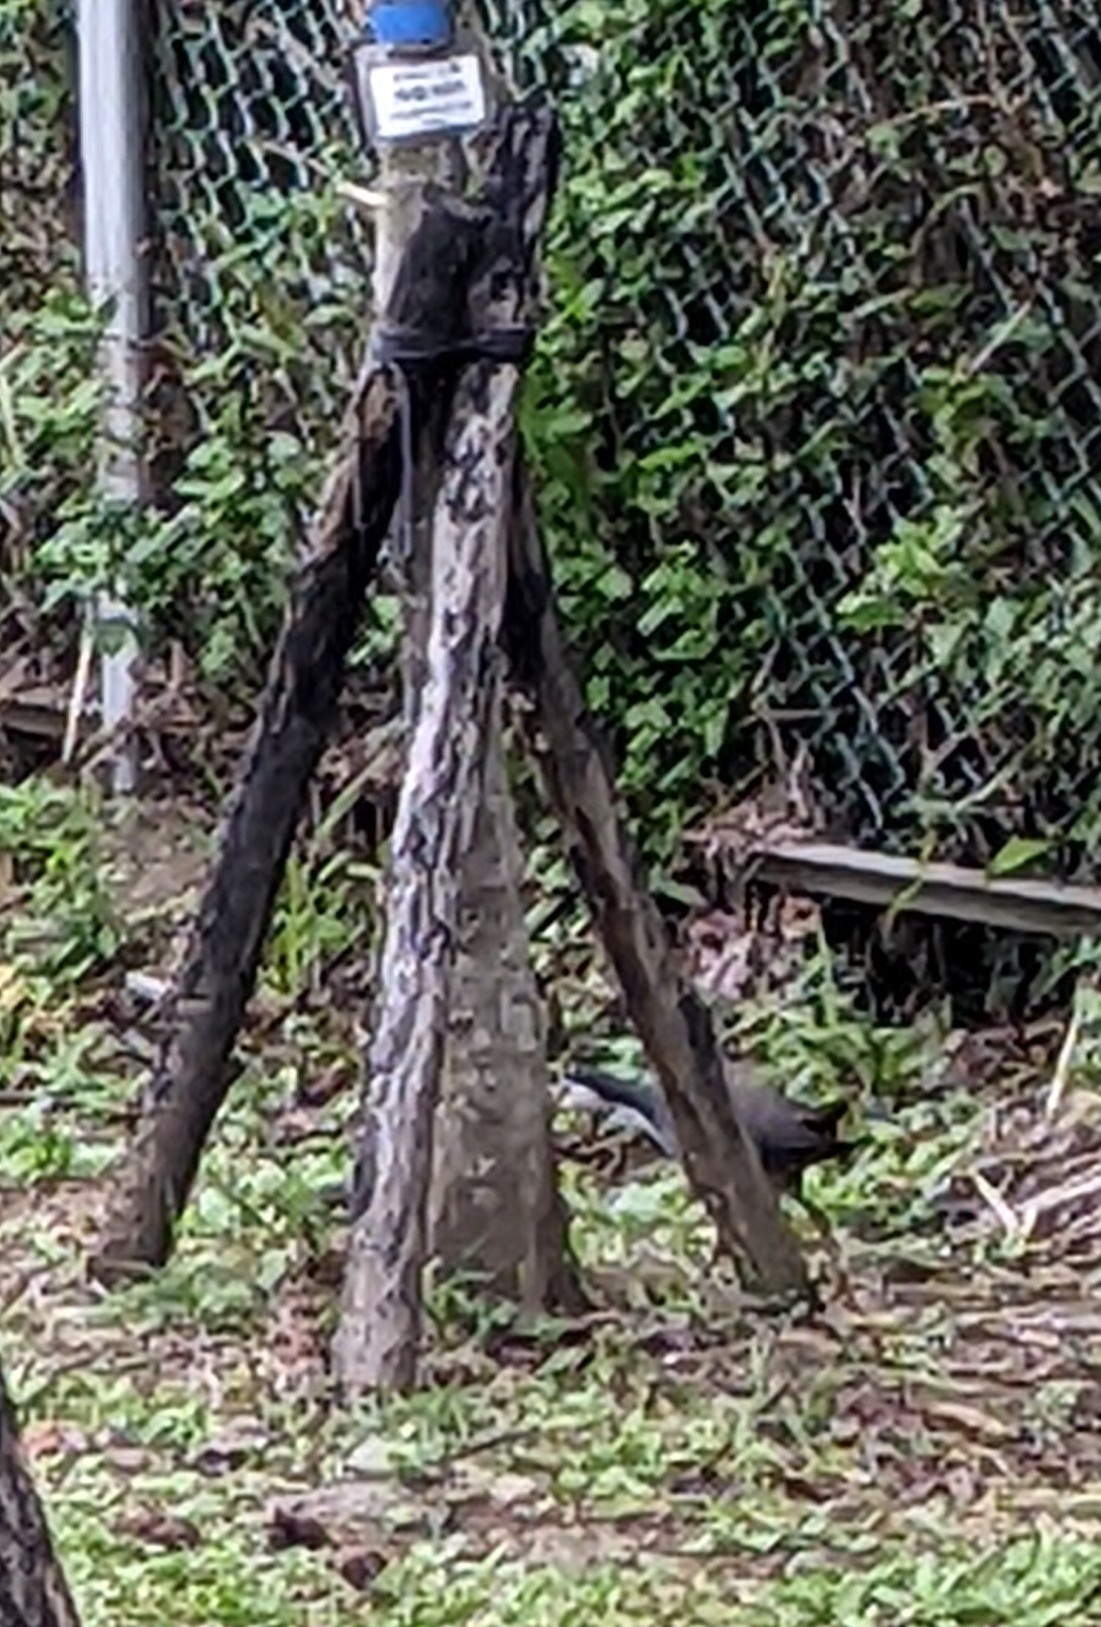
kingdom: Animalia
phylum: Chordata
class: Aves
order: Gruiformes
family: Rallidae
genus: Amaurornis
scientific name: Amaurornis phoenicurus
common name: White-breasted waterhen
